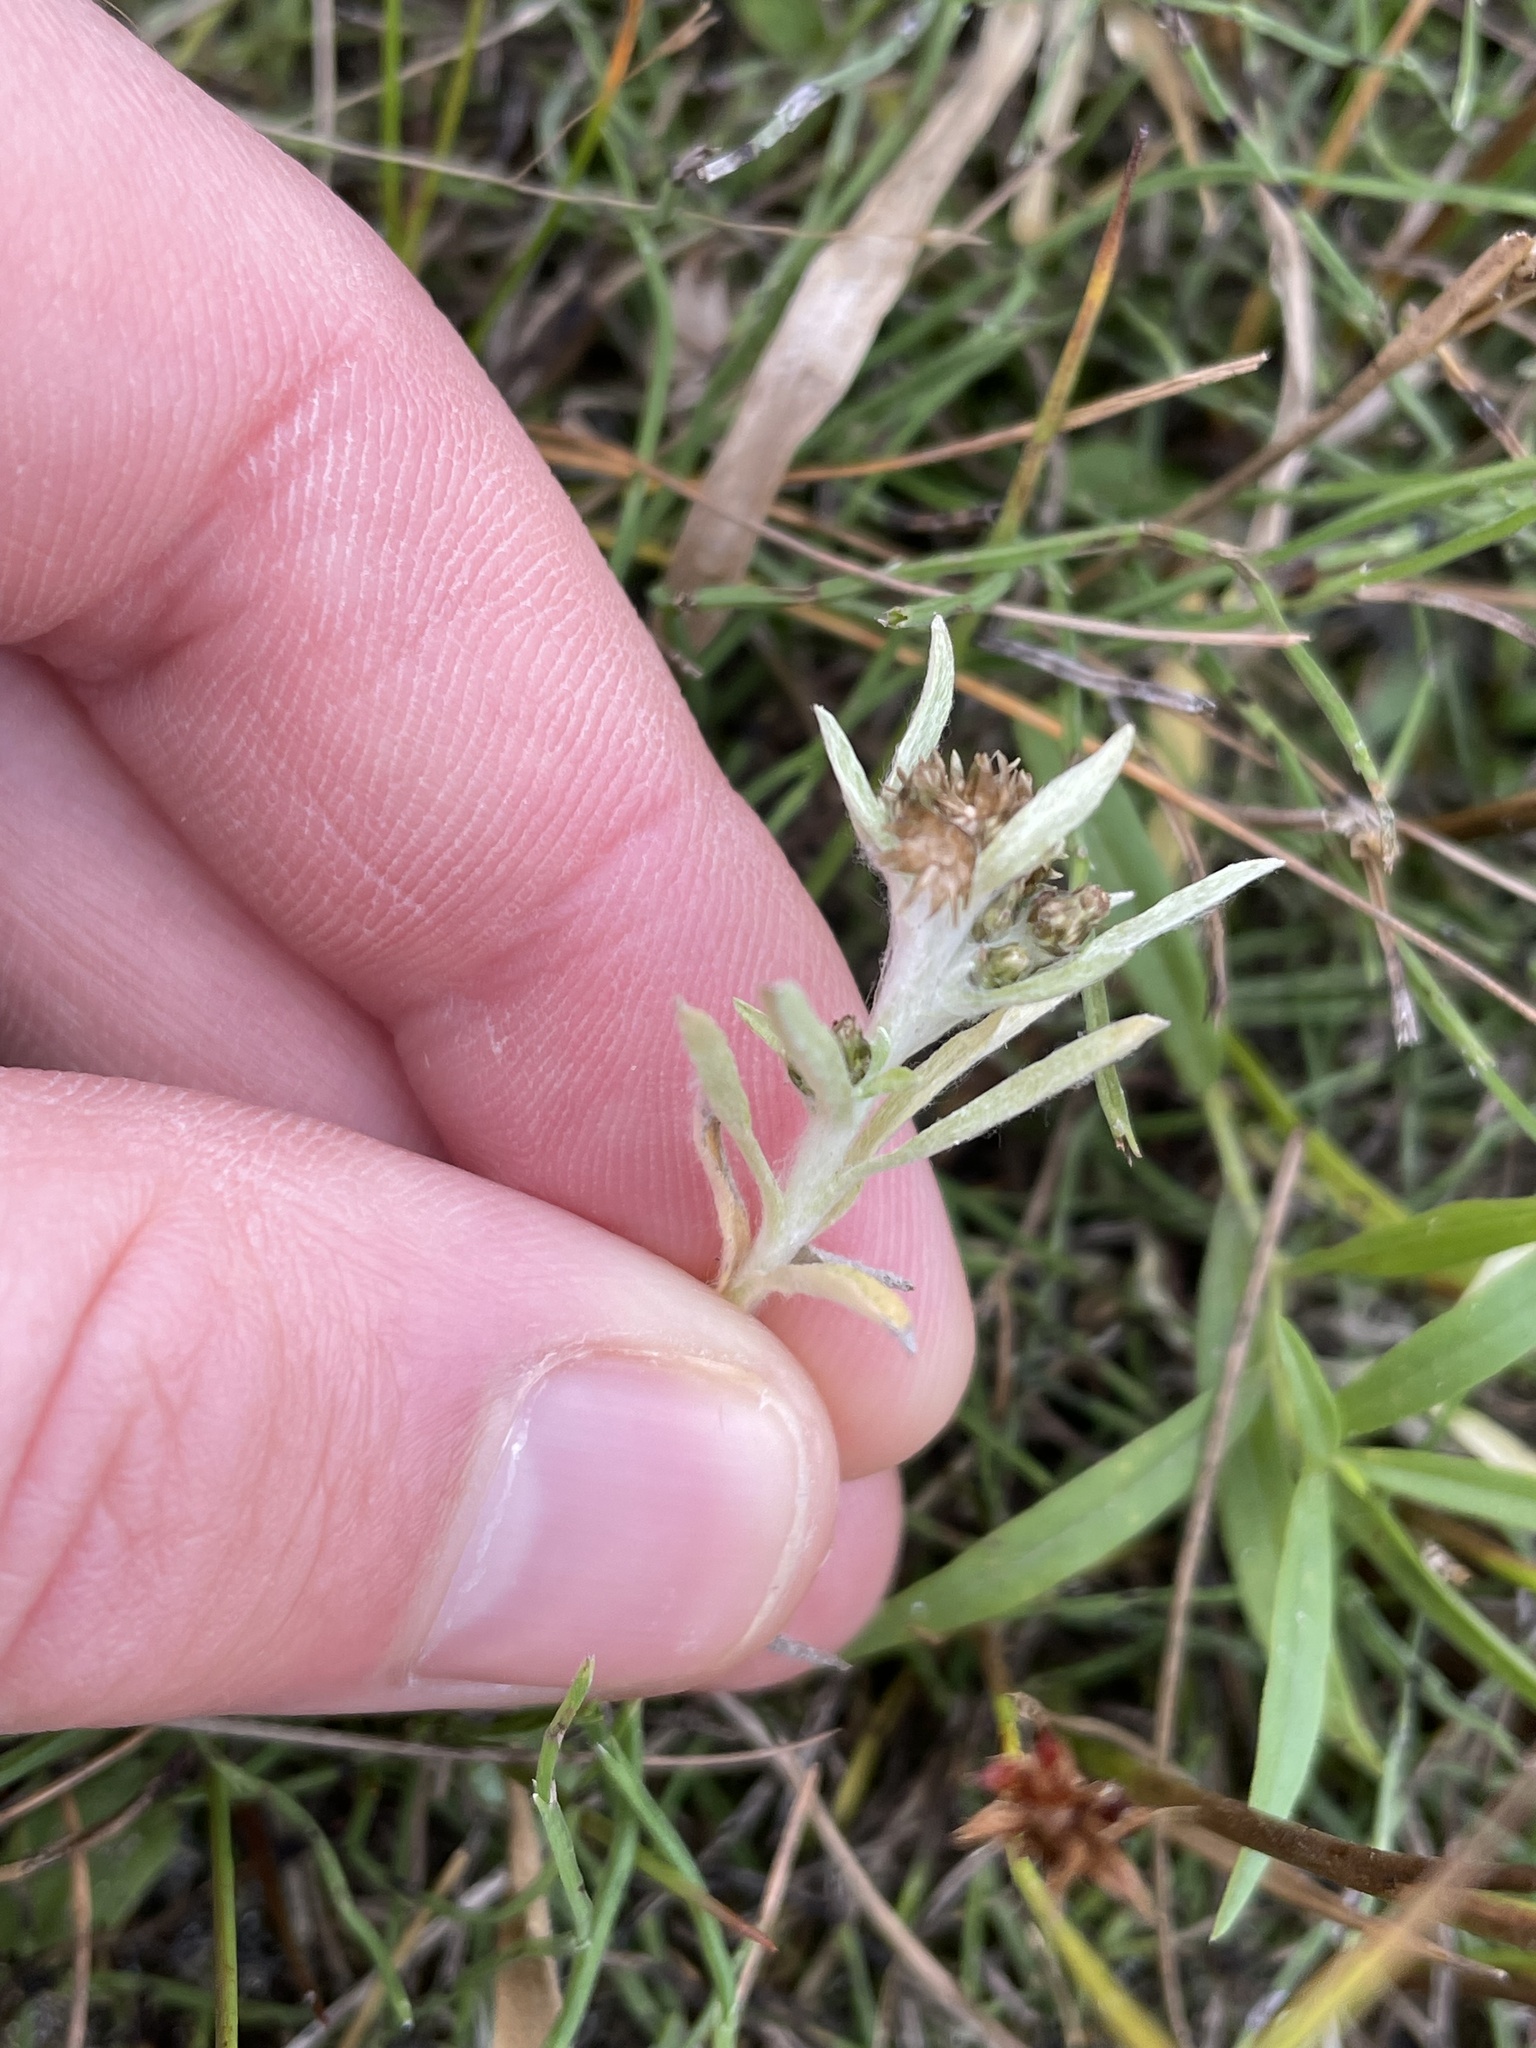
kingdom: Plantae
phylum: Tracheophyta
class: Magnoliopsida
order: Asterales
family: Asteraceae
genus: Gnaphalium
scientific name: Gnaphalium uliginosum
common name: Marsh cudweed
